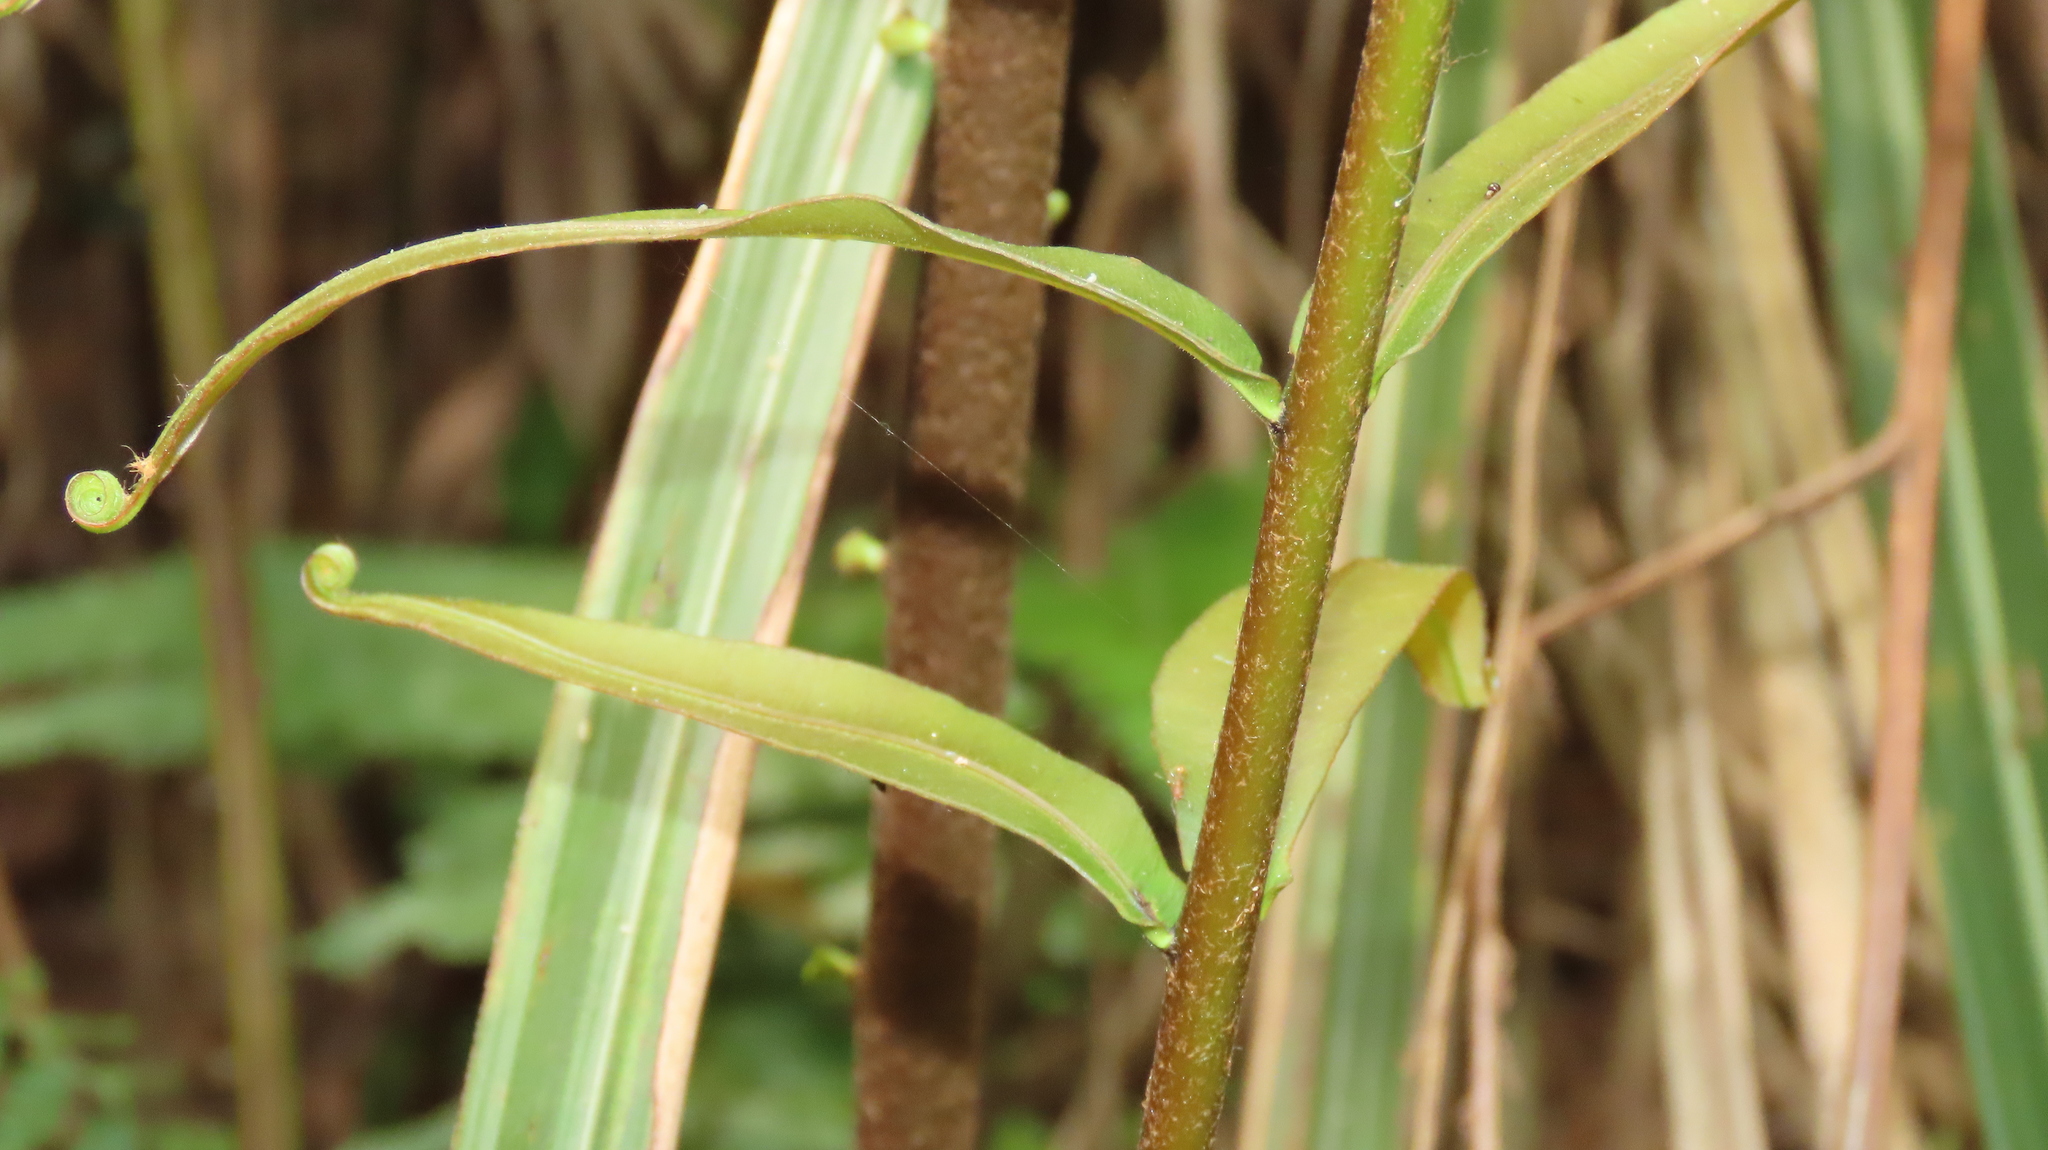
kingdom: Plantae
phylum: Tracheophyta
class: Polypodiopsida
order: Polypodiales
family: Blechnaceae
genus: Blechnopsis
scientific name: Blechnopsis orientalis
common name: Oriental blechnum
